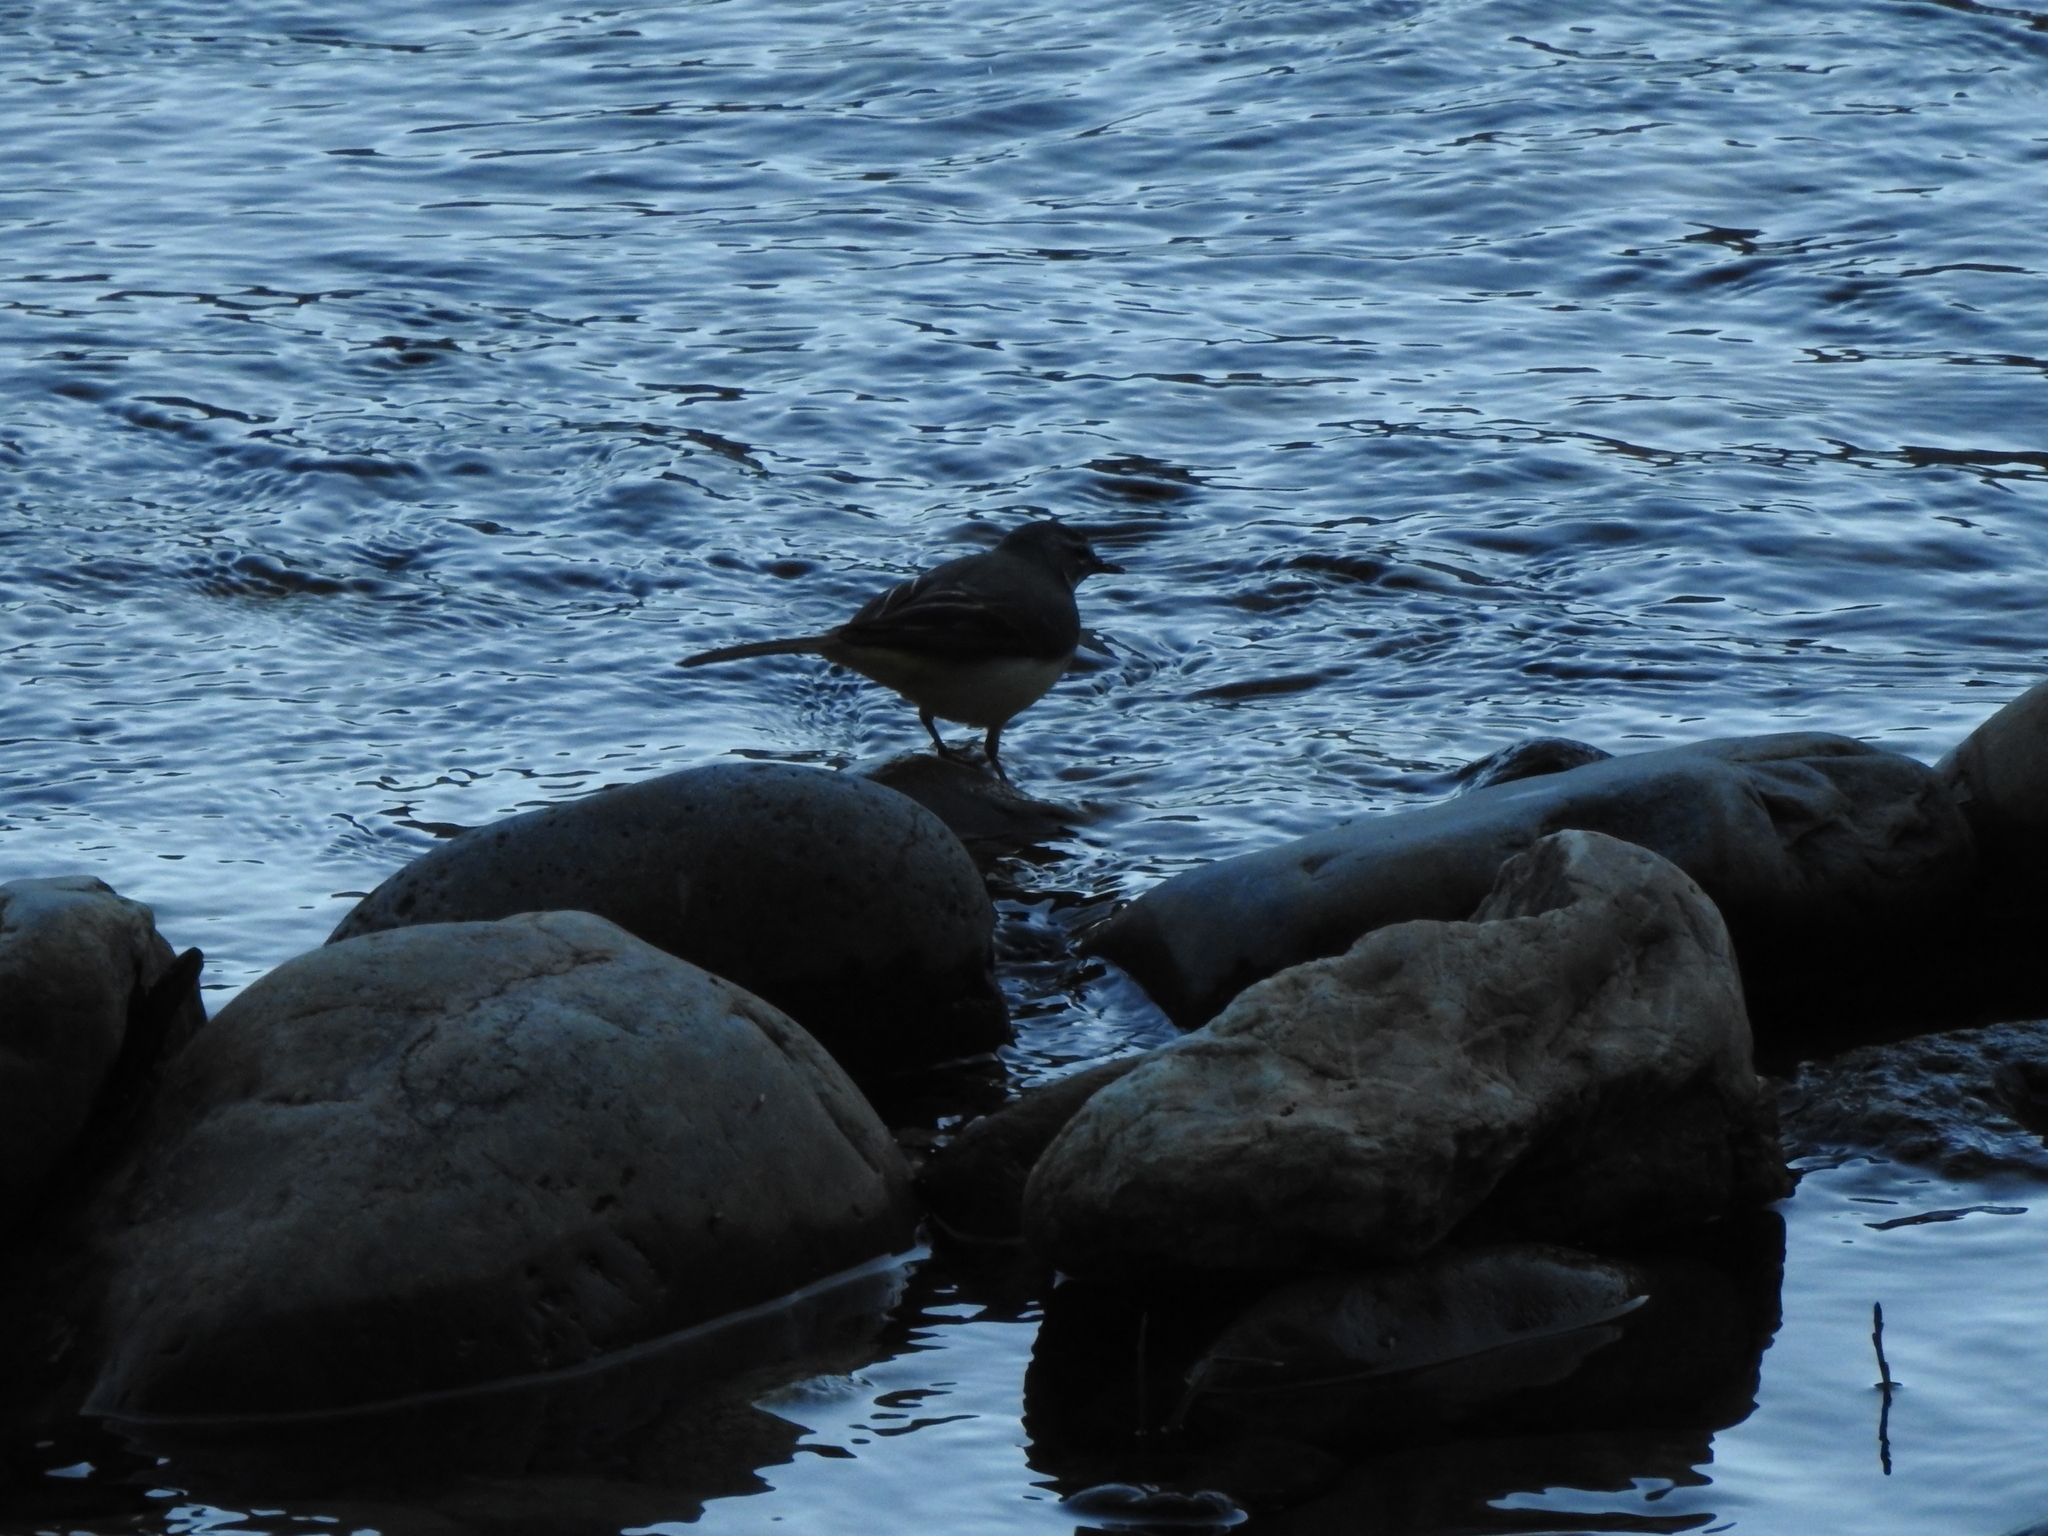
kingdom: Animalia
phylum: Chordata
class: Aves
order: Passeriformes
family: Motacillidae
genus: Motacilla
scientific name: Motacilla cinerea
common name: Grey wagtail
